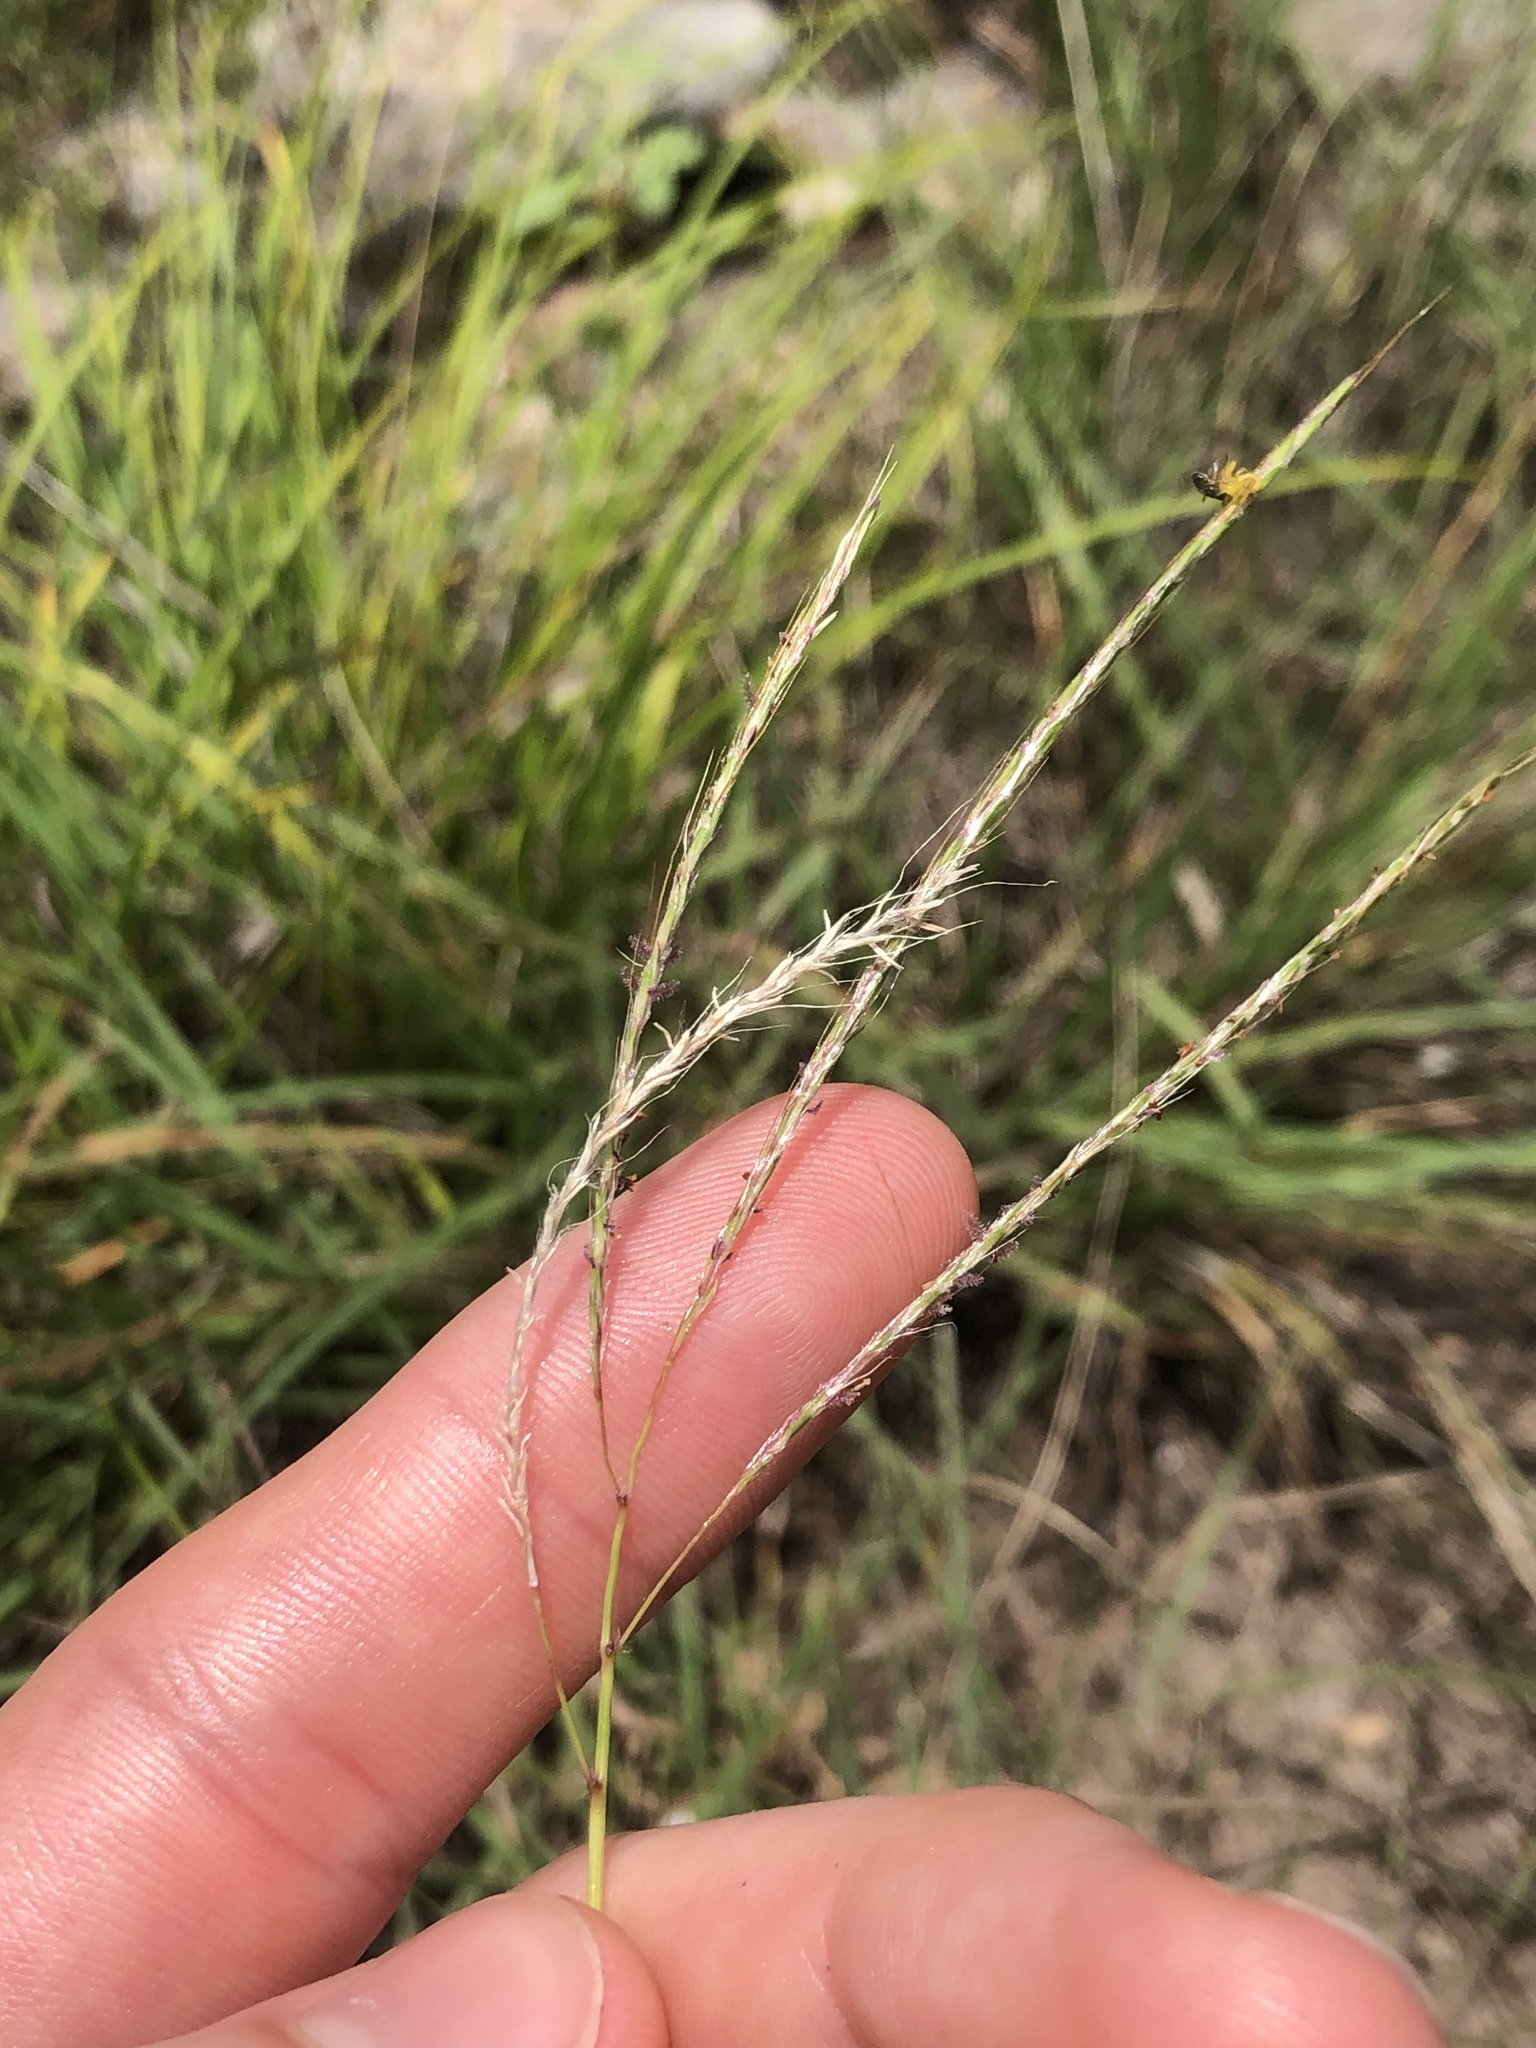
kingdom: Plantae
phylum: Tracheophyta
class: Liliopsida
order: Poales
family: Poaceae
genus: Bothriochloa
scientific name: Bothriochloa ischaemum
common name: Yellow bluestem
